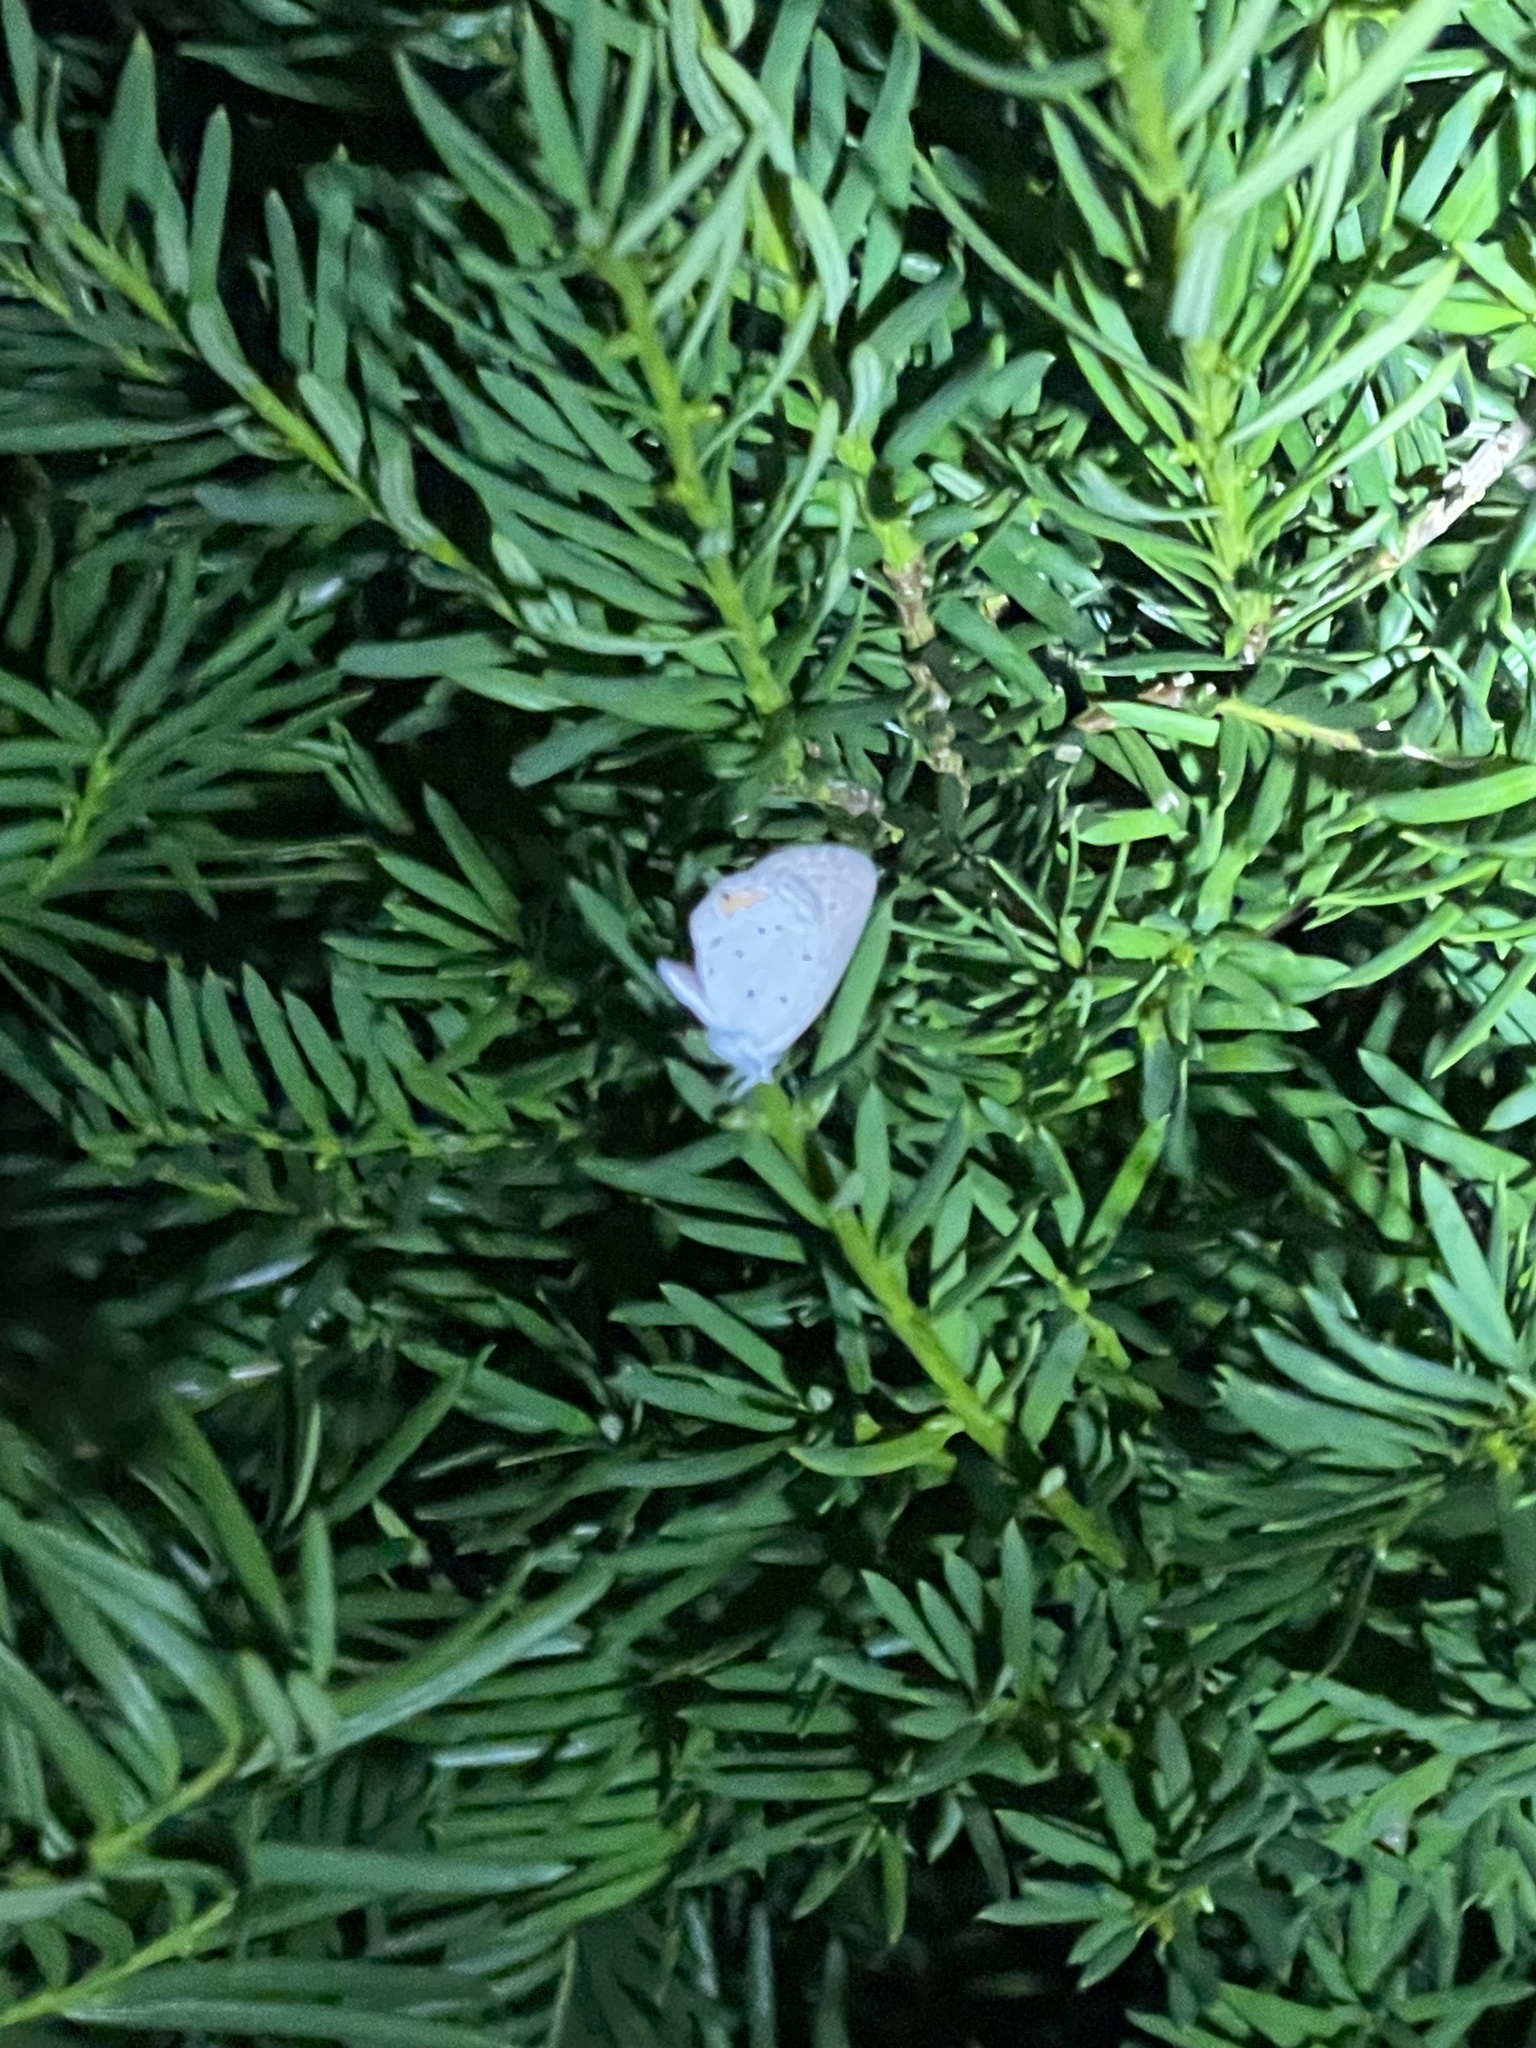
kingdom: Animalia
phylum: Arthropoda
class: Insecta
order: Lepidoptera
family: Lycaenidae
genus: Elkalyce
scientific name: Elkalyce comyntas
